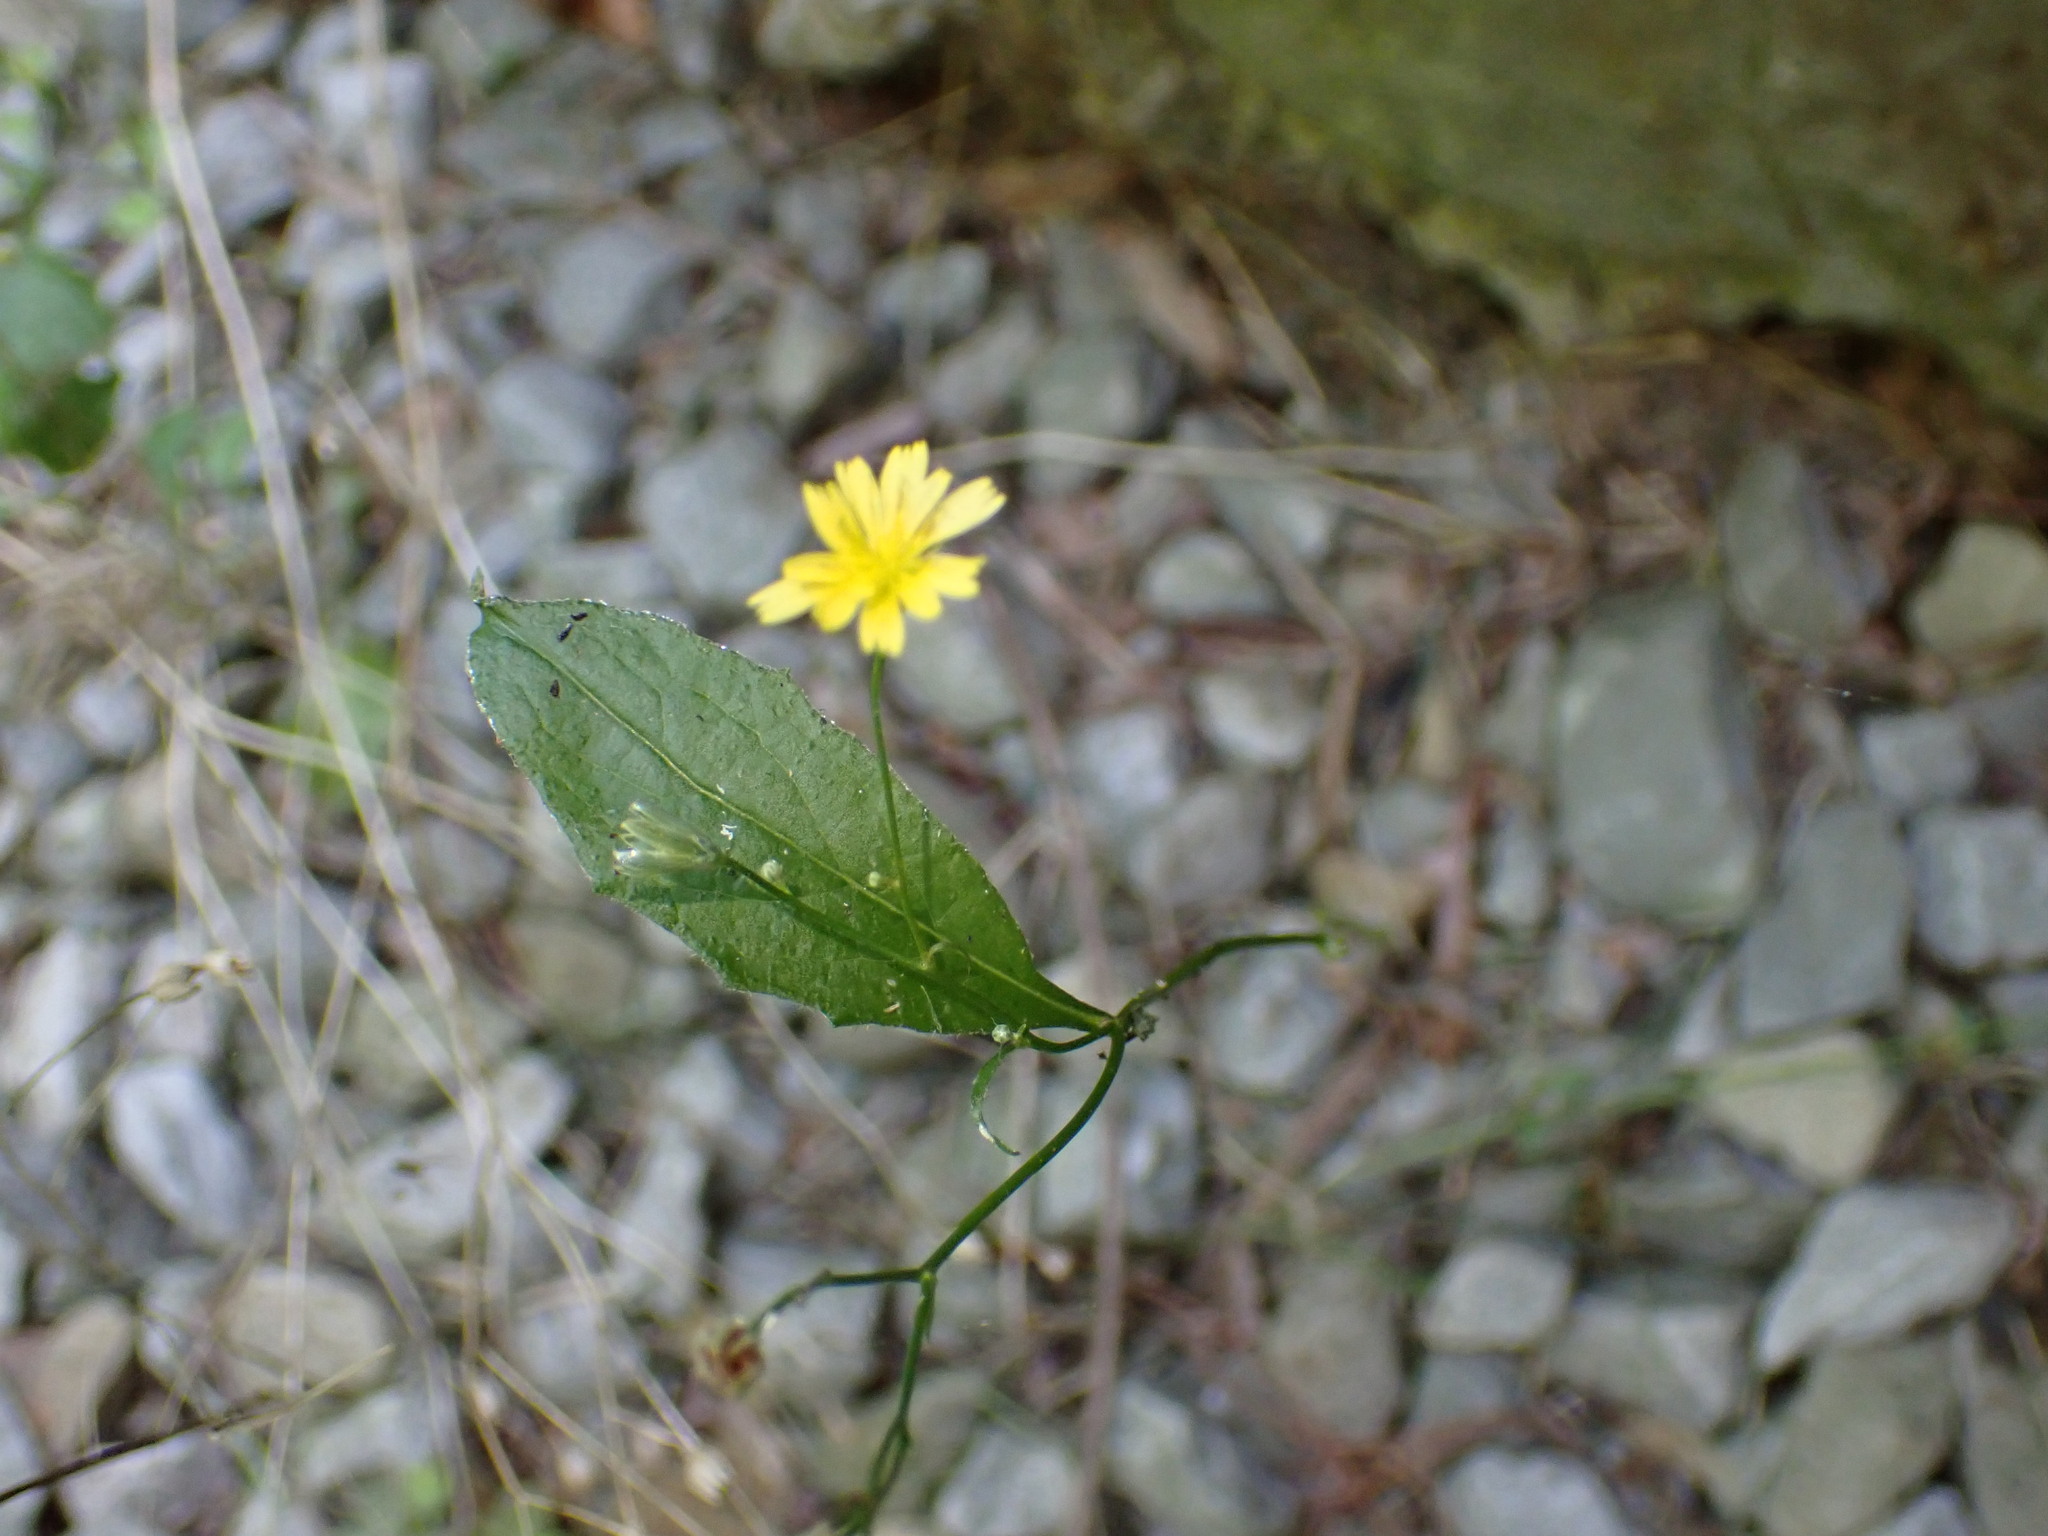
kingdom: Plantae
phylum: Tracheophyta
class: Magnoliopsida
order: Asterales
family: Asteraceae
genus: Lapsana
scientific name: Lapsana communis
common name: Nipplewort
